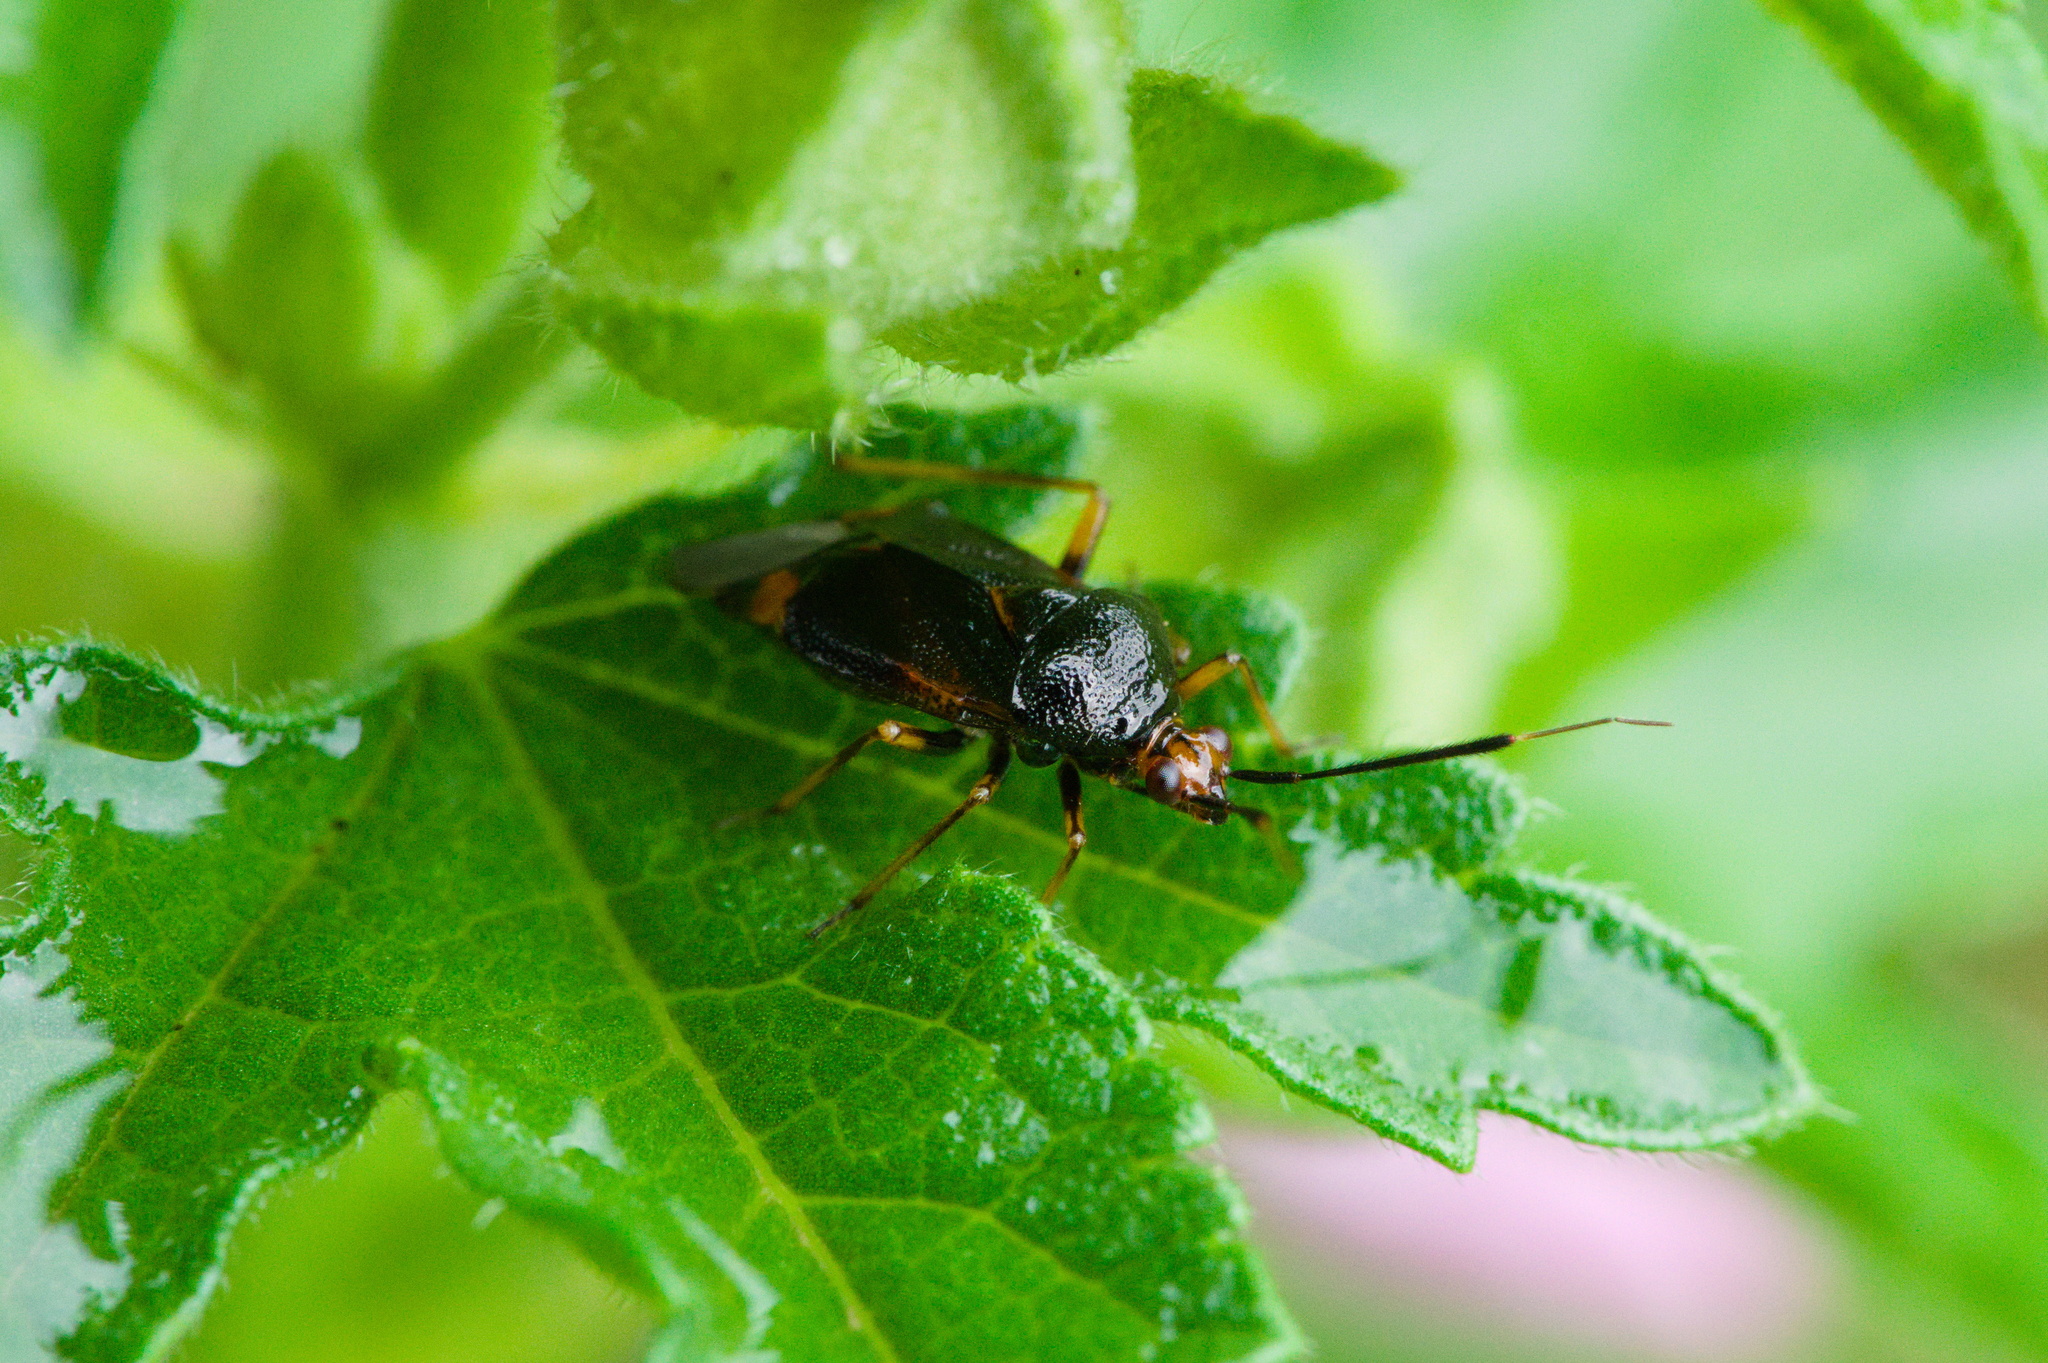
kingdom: Animalia
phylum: Arthropoda
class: Insecta
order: Hemiptera
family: Miridae
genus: Deraeocoris
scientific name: Deraeocoris ruber
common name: Plant bug
